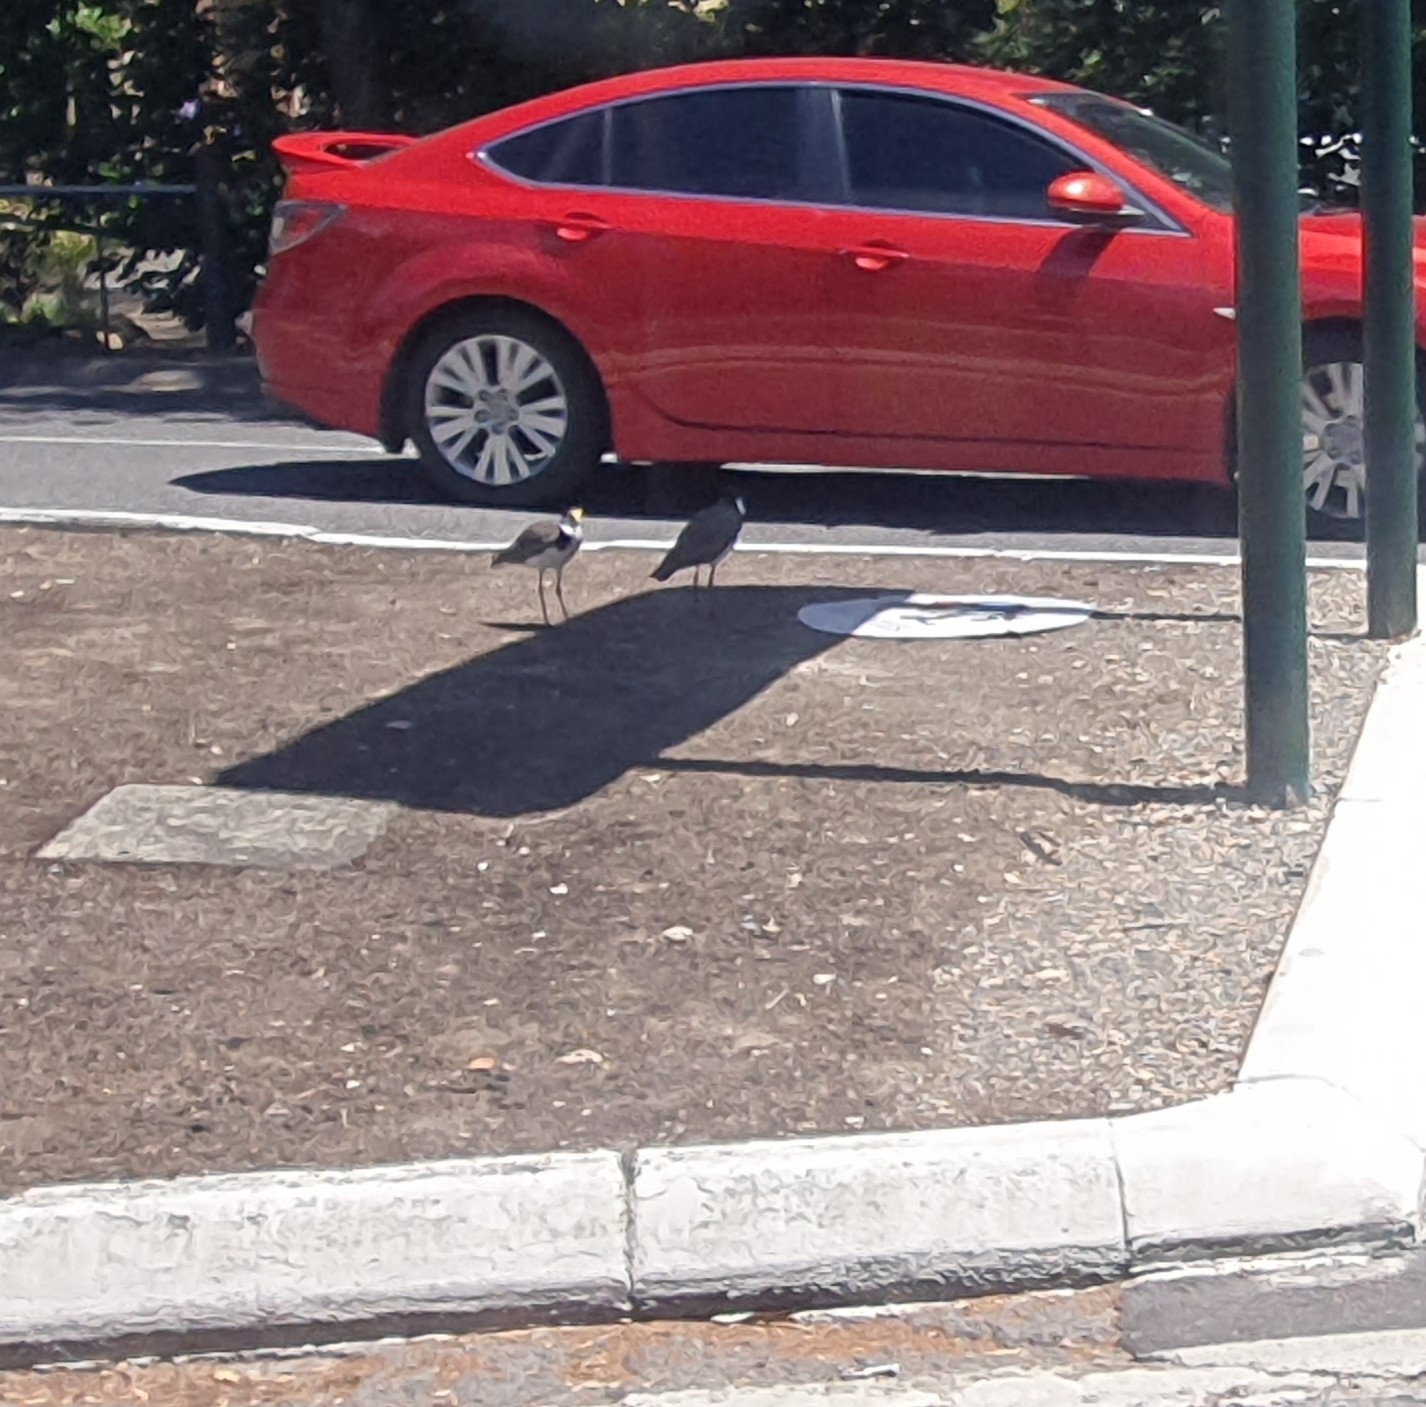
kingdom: Animalia
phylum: Chordata
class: Aves
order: Charadriiformes
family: Charadriidae
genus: Vanellus
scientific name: Vanellus miles
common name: Masked lapwing
